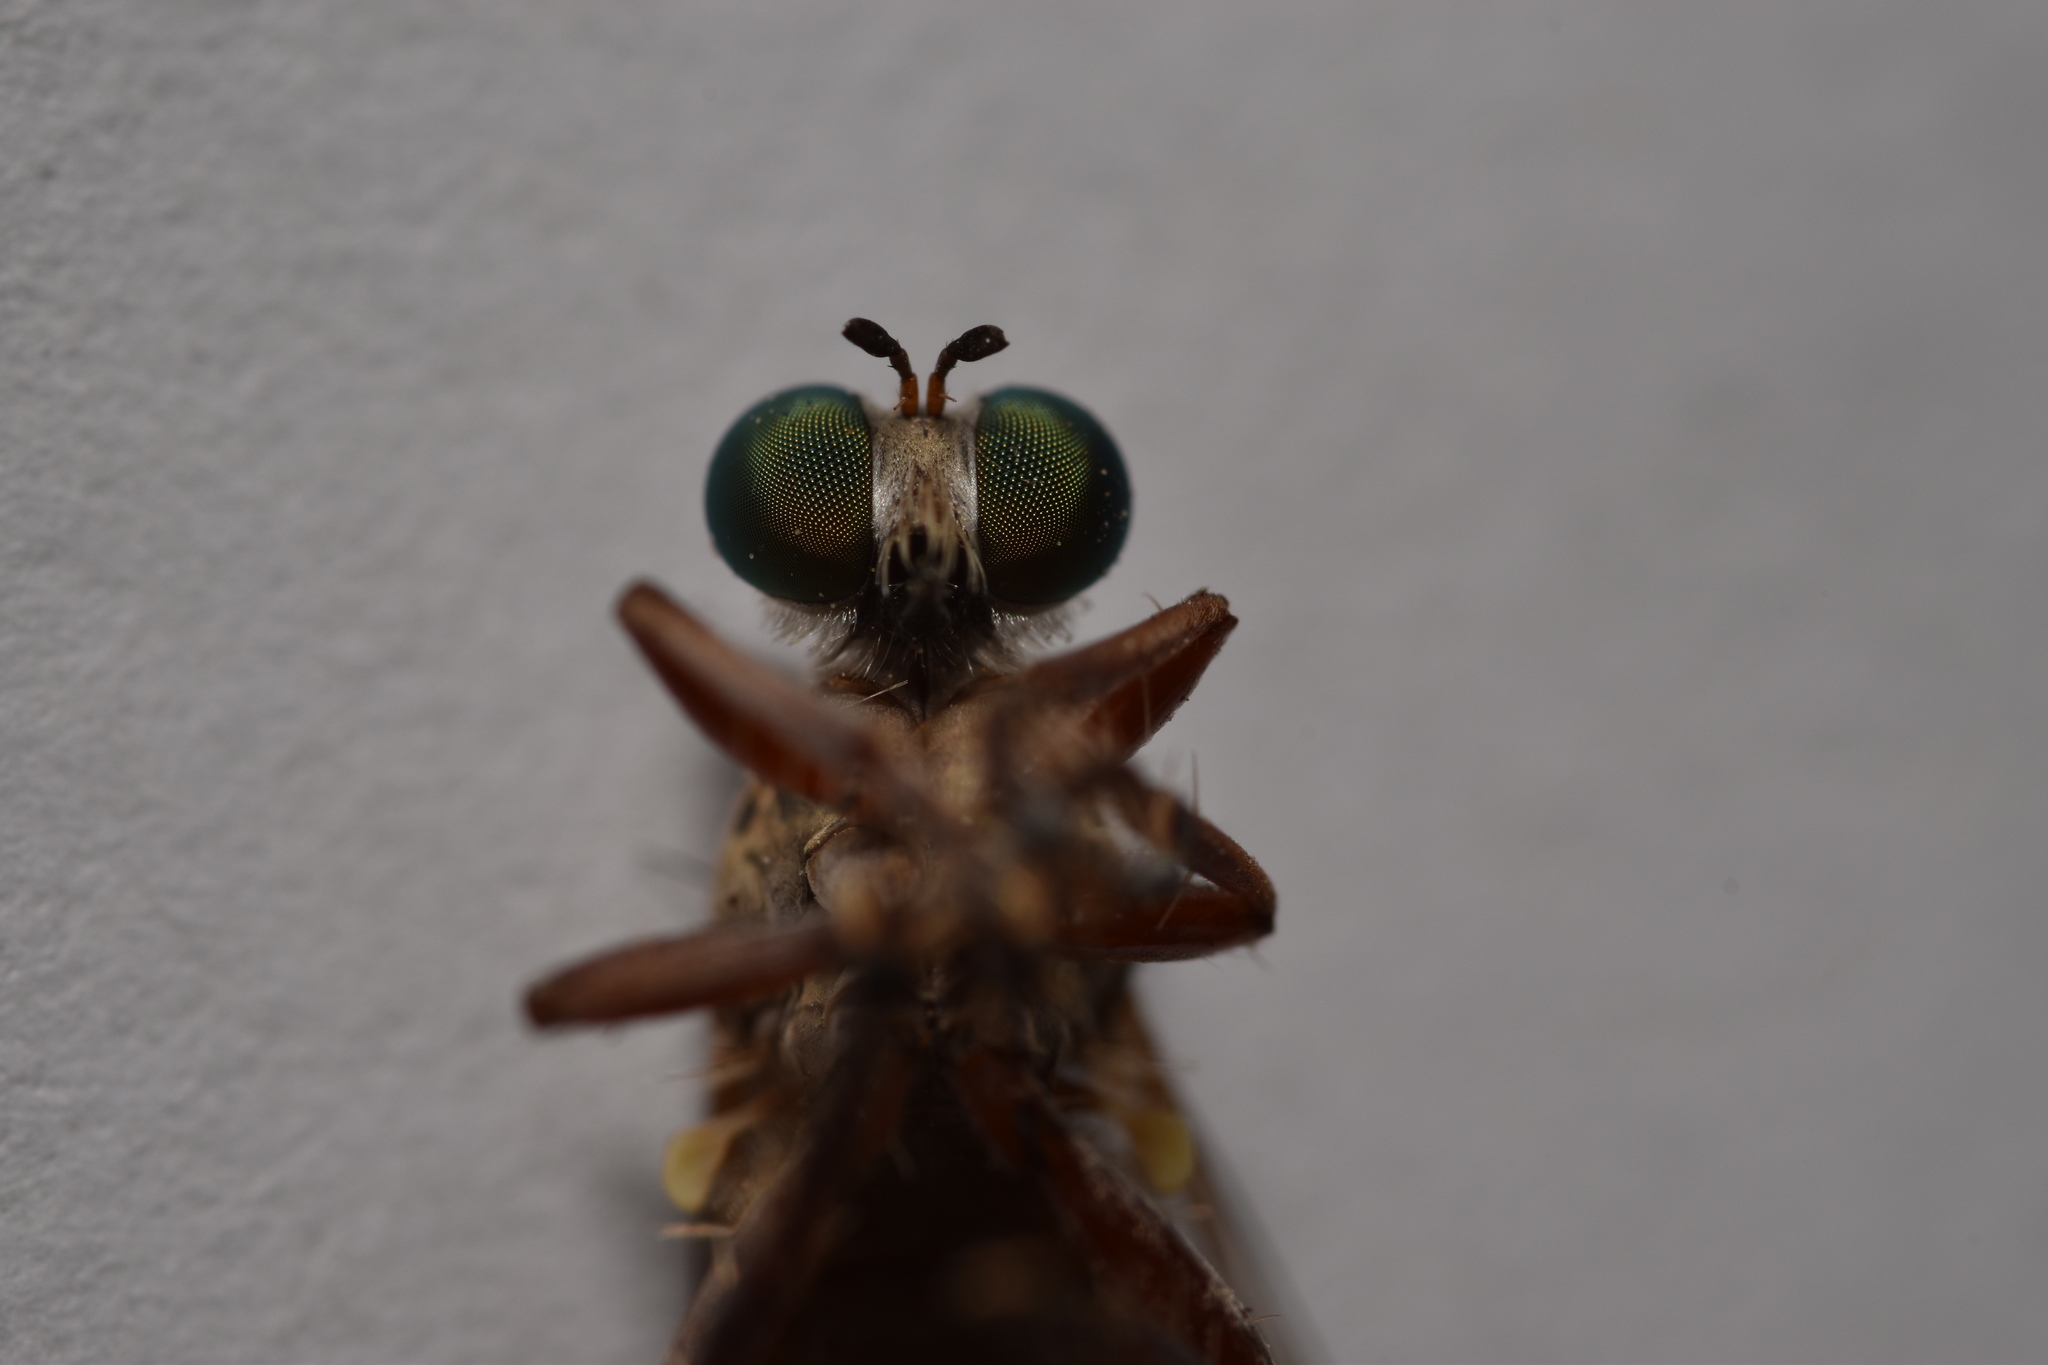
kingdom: Animalia
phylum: Arthropoda
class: Insecta
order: Diptera
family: Asilidae
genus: Psilocurus
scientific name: Psilocurus nudiusculus
